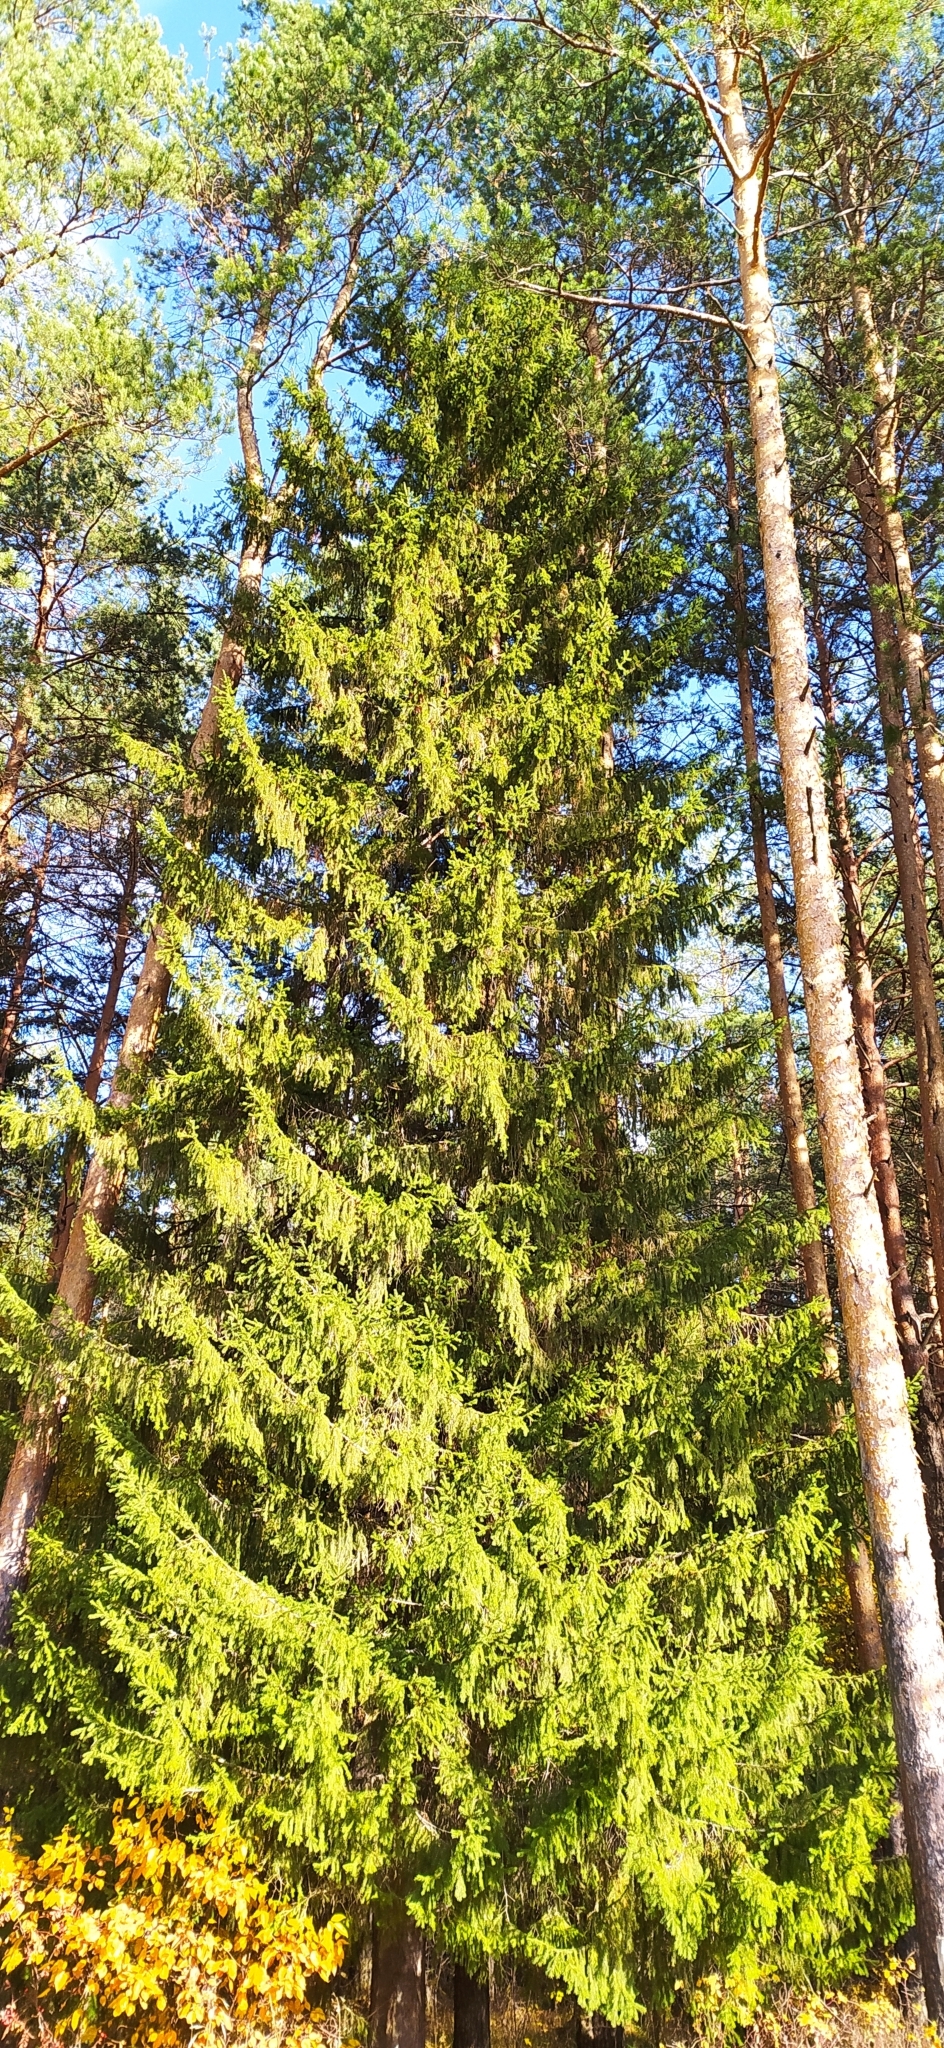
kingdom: Plantae
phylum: Tracheophyta
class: Pinopsida
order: Pinales
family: Pinaceae
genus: Picea
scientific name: Picea obovata
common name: Siberian spruce
